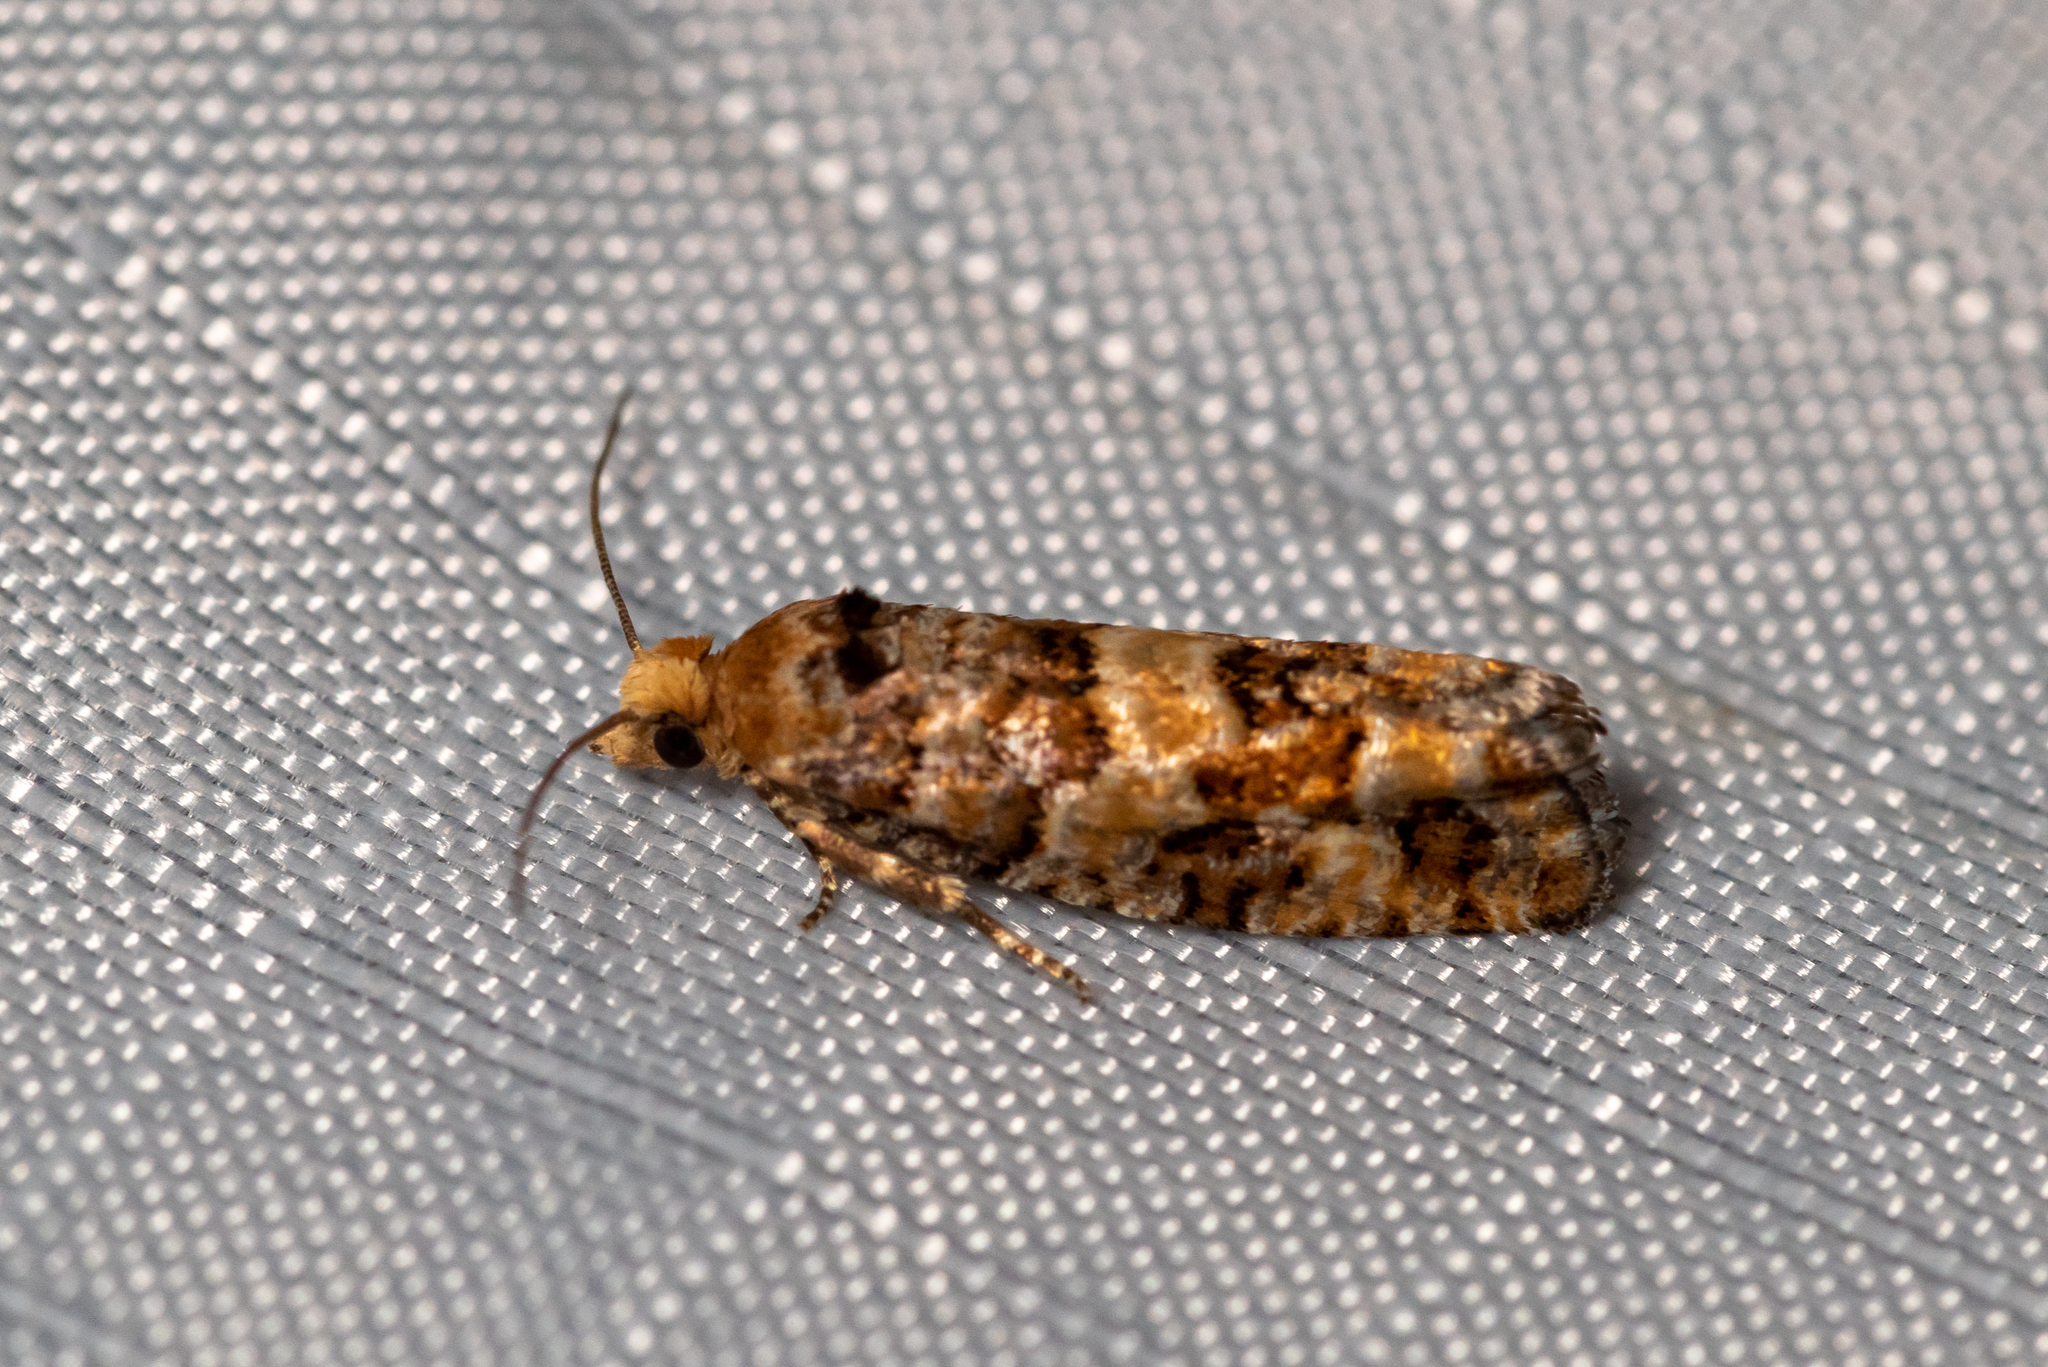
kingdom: Animalia
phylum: Arthropoda
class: Insecta
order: Lepidoptera
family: Tortricidae
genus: Eucopina
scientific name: Eucopina tocullionana
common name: White pinecone borer moth
